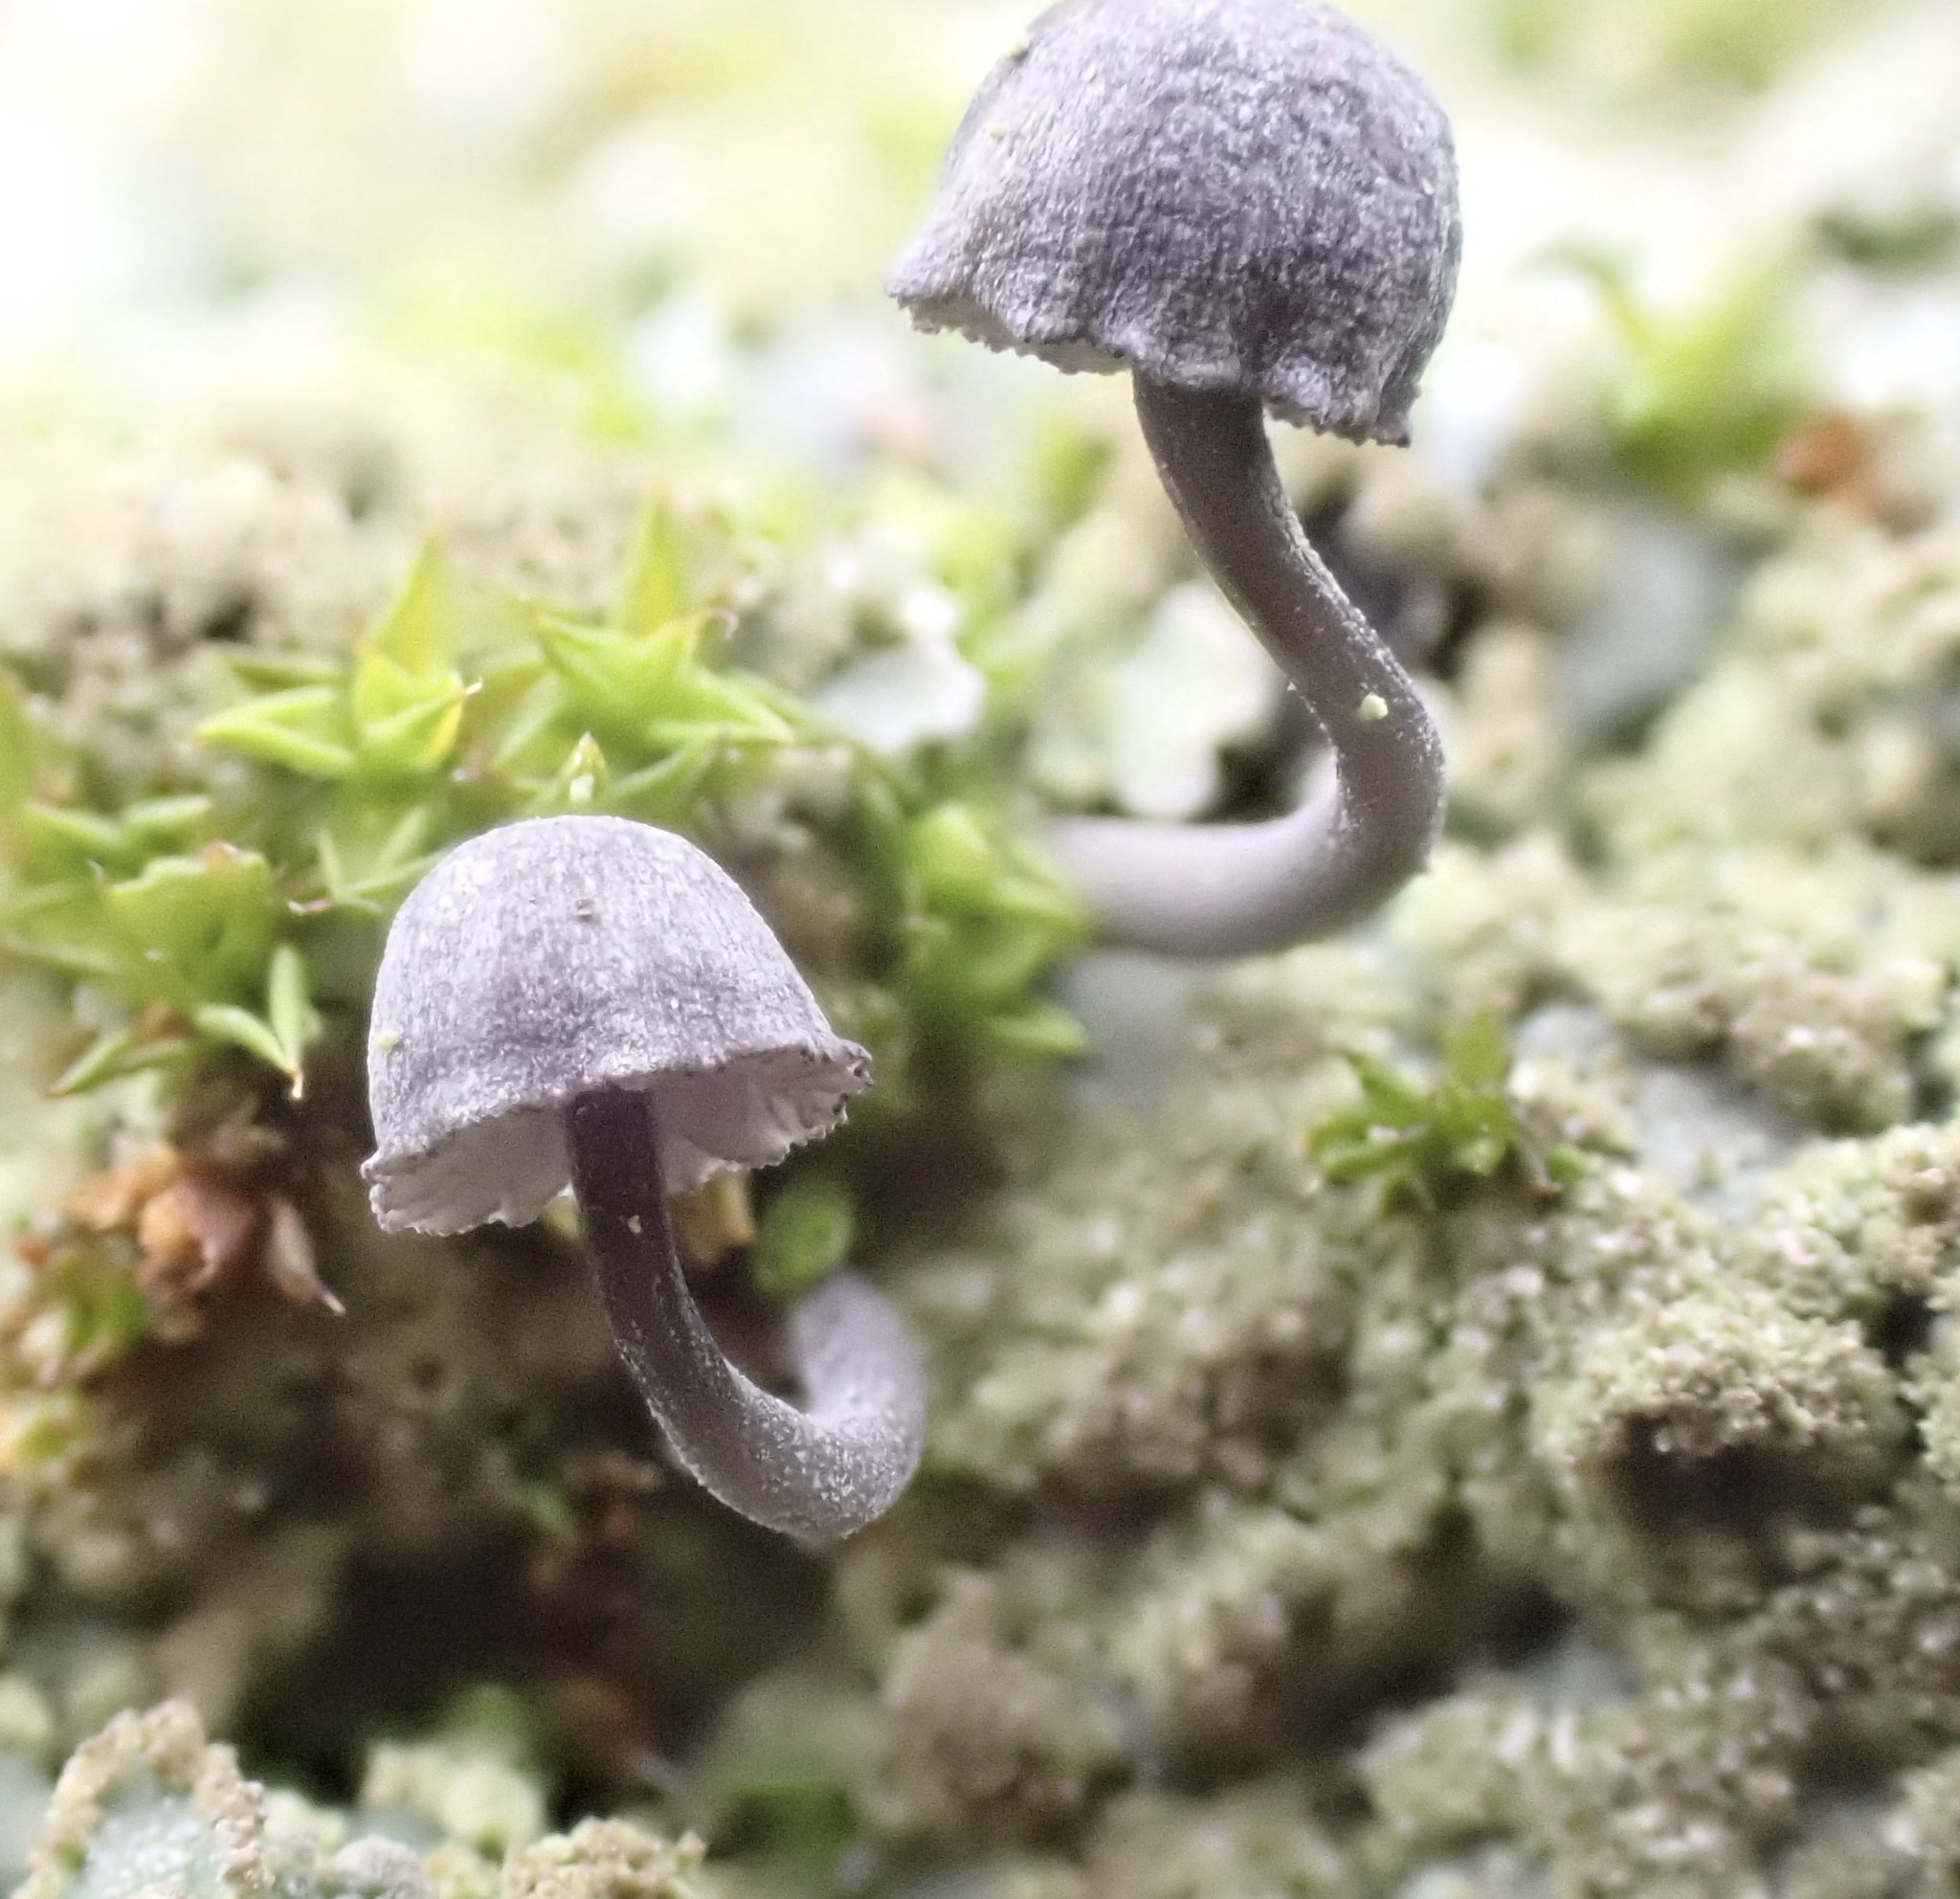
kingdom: Fungi
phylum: Basidiomycota
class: Agaricomycetes
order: Agaricales
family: Mycenaceae
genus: Mycena
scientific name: Mycena pseudocorticola
